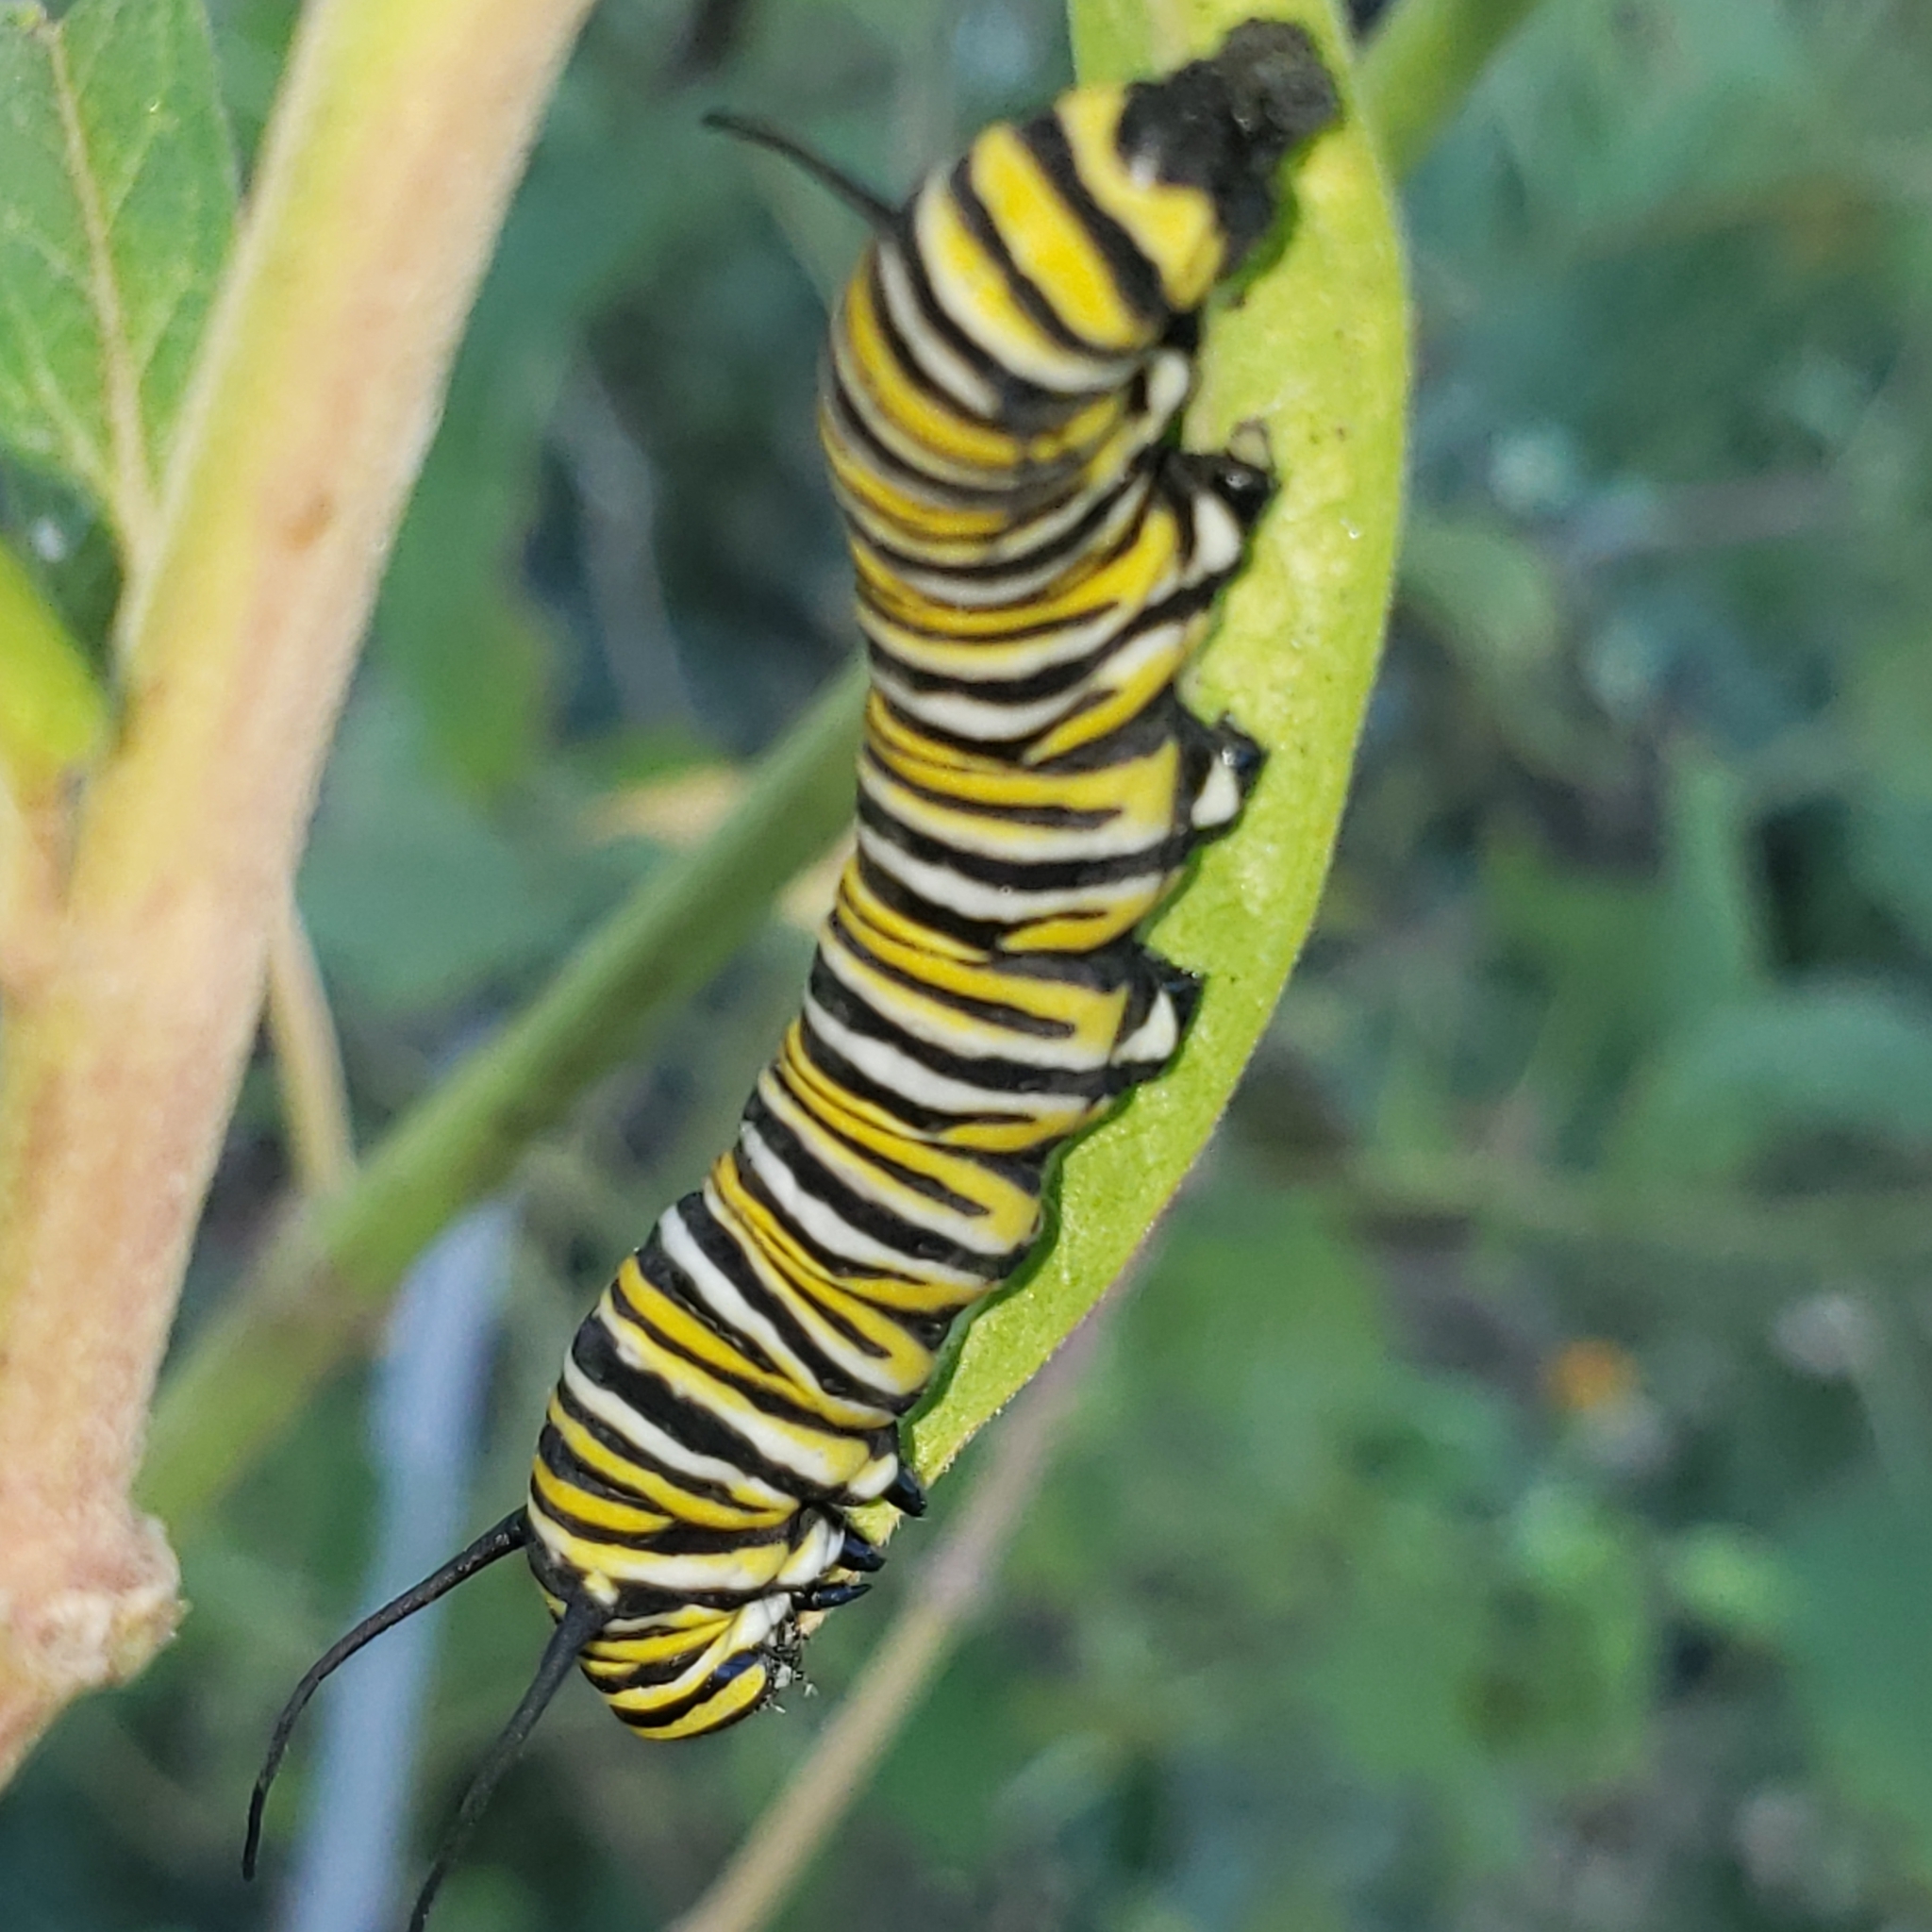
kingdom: Animalia
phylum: Arthropoda
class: Insecta
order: Lepidoptera
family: Nymphalidae
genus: Danaus
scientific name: Danaus plexippus
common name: Monarch
